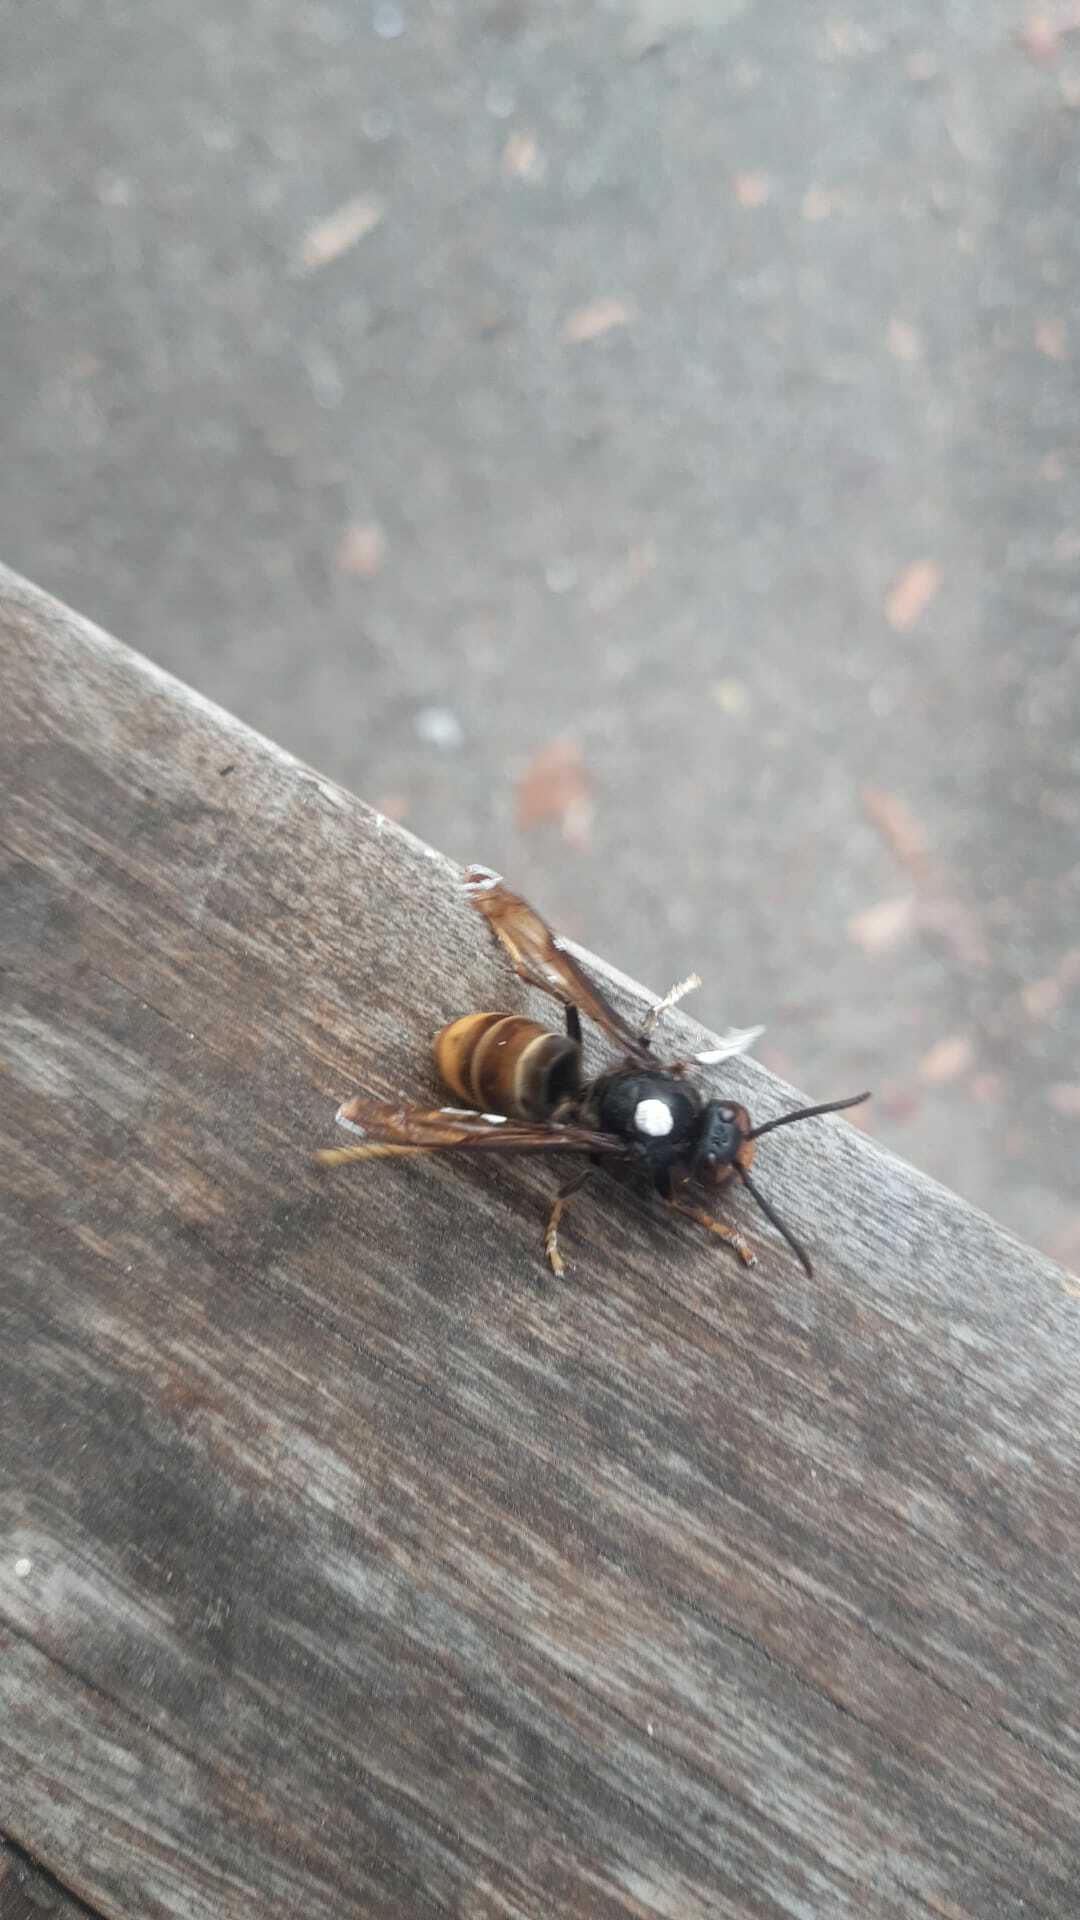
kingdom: Animalia
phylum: Arthropoda
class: Insecta
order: Hymenoptera
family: Vespidae
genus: Vespa
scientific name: Vespa velutina
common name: Asian hornet
